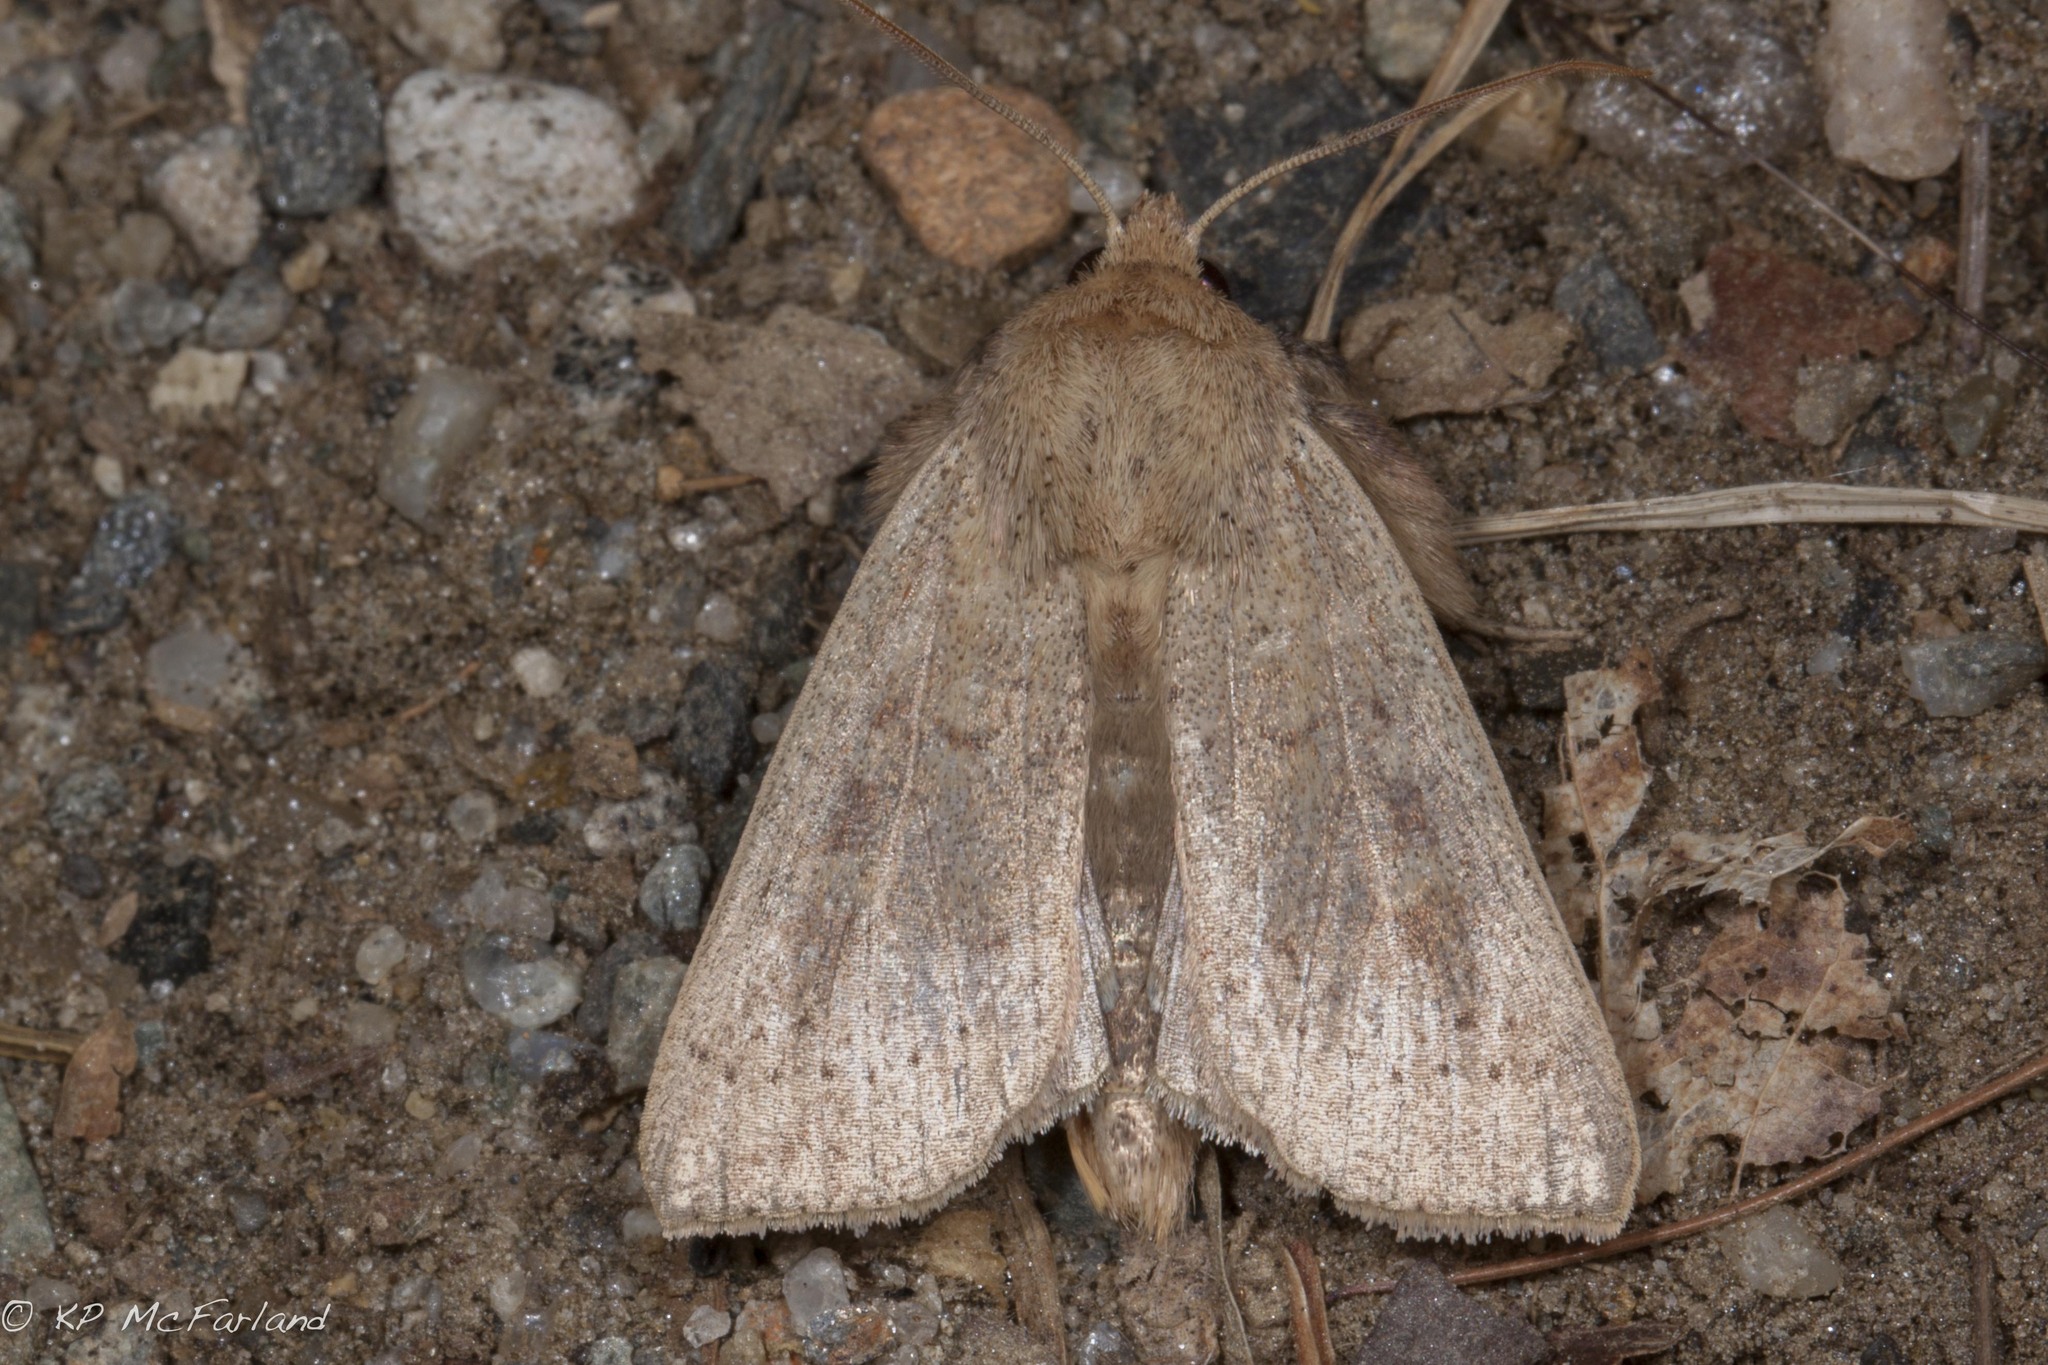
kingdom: Animalia
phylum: Arthropoda
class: Insecta
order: Lepidoptera
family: Noctuidae
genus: Leucania
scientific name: Leucania ursula
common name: Ursula wainscot
